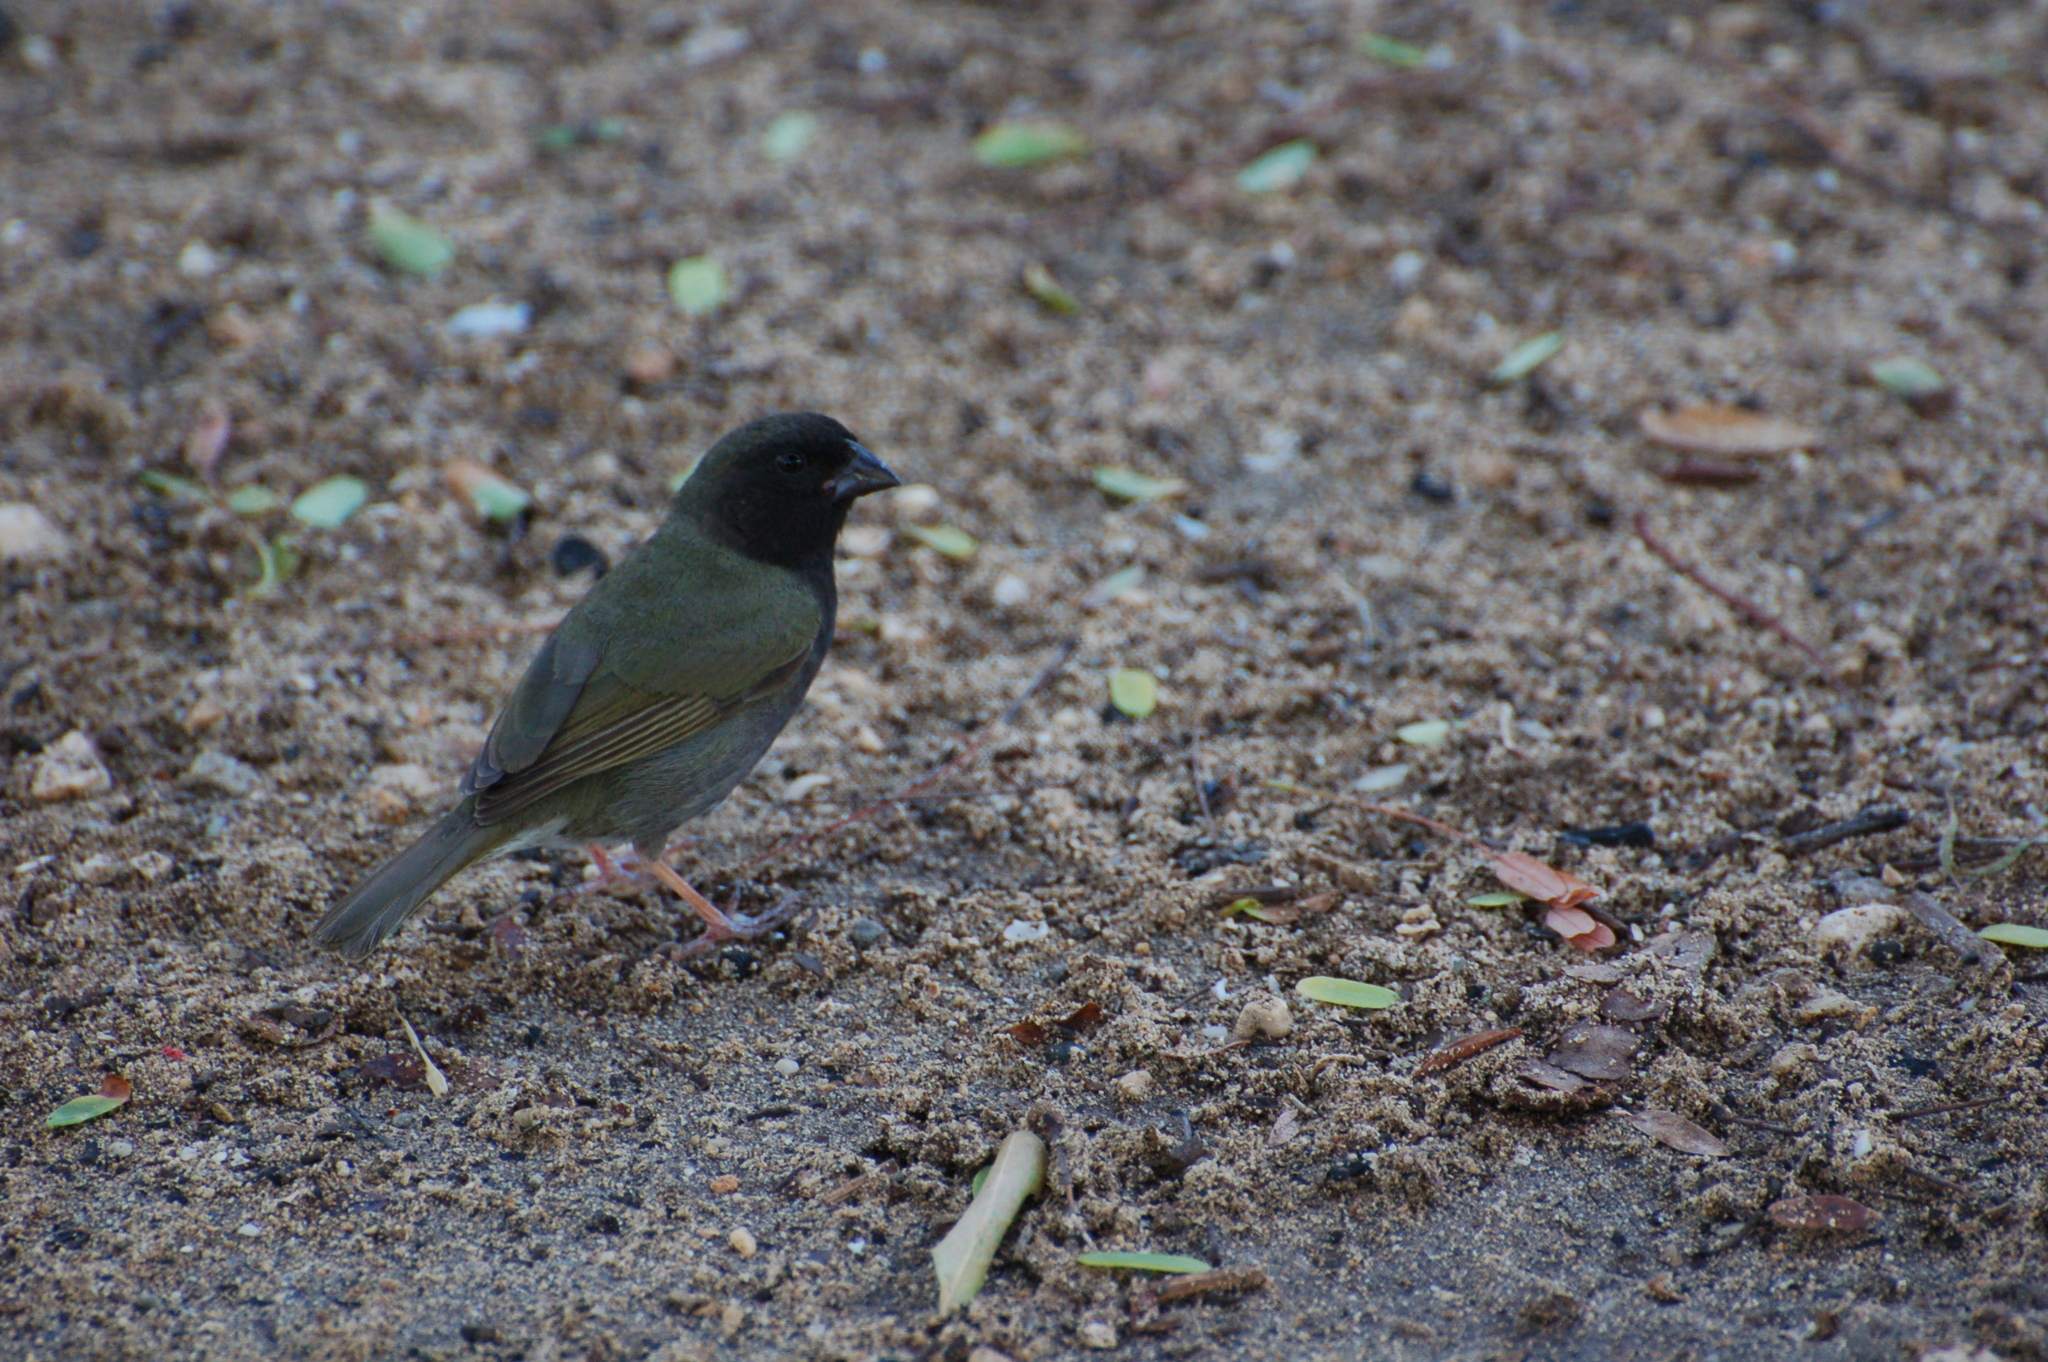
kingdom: Animalia
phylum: Chordata
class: Aves
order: Passeriformes
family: Thraupidae
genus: Melanospiza
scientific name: Melanospiza bicolor
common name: Black-faced grassquit
